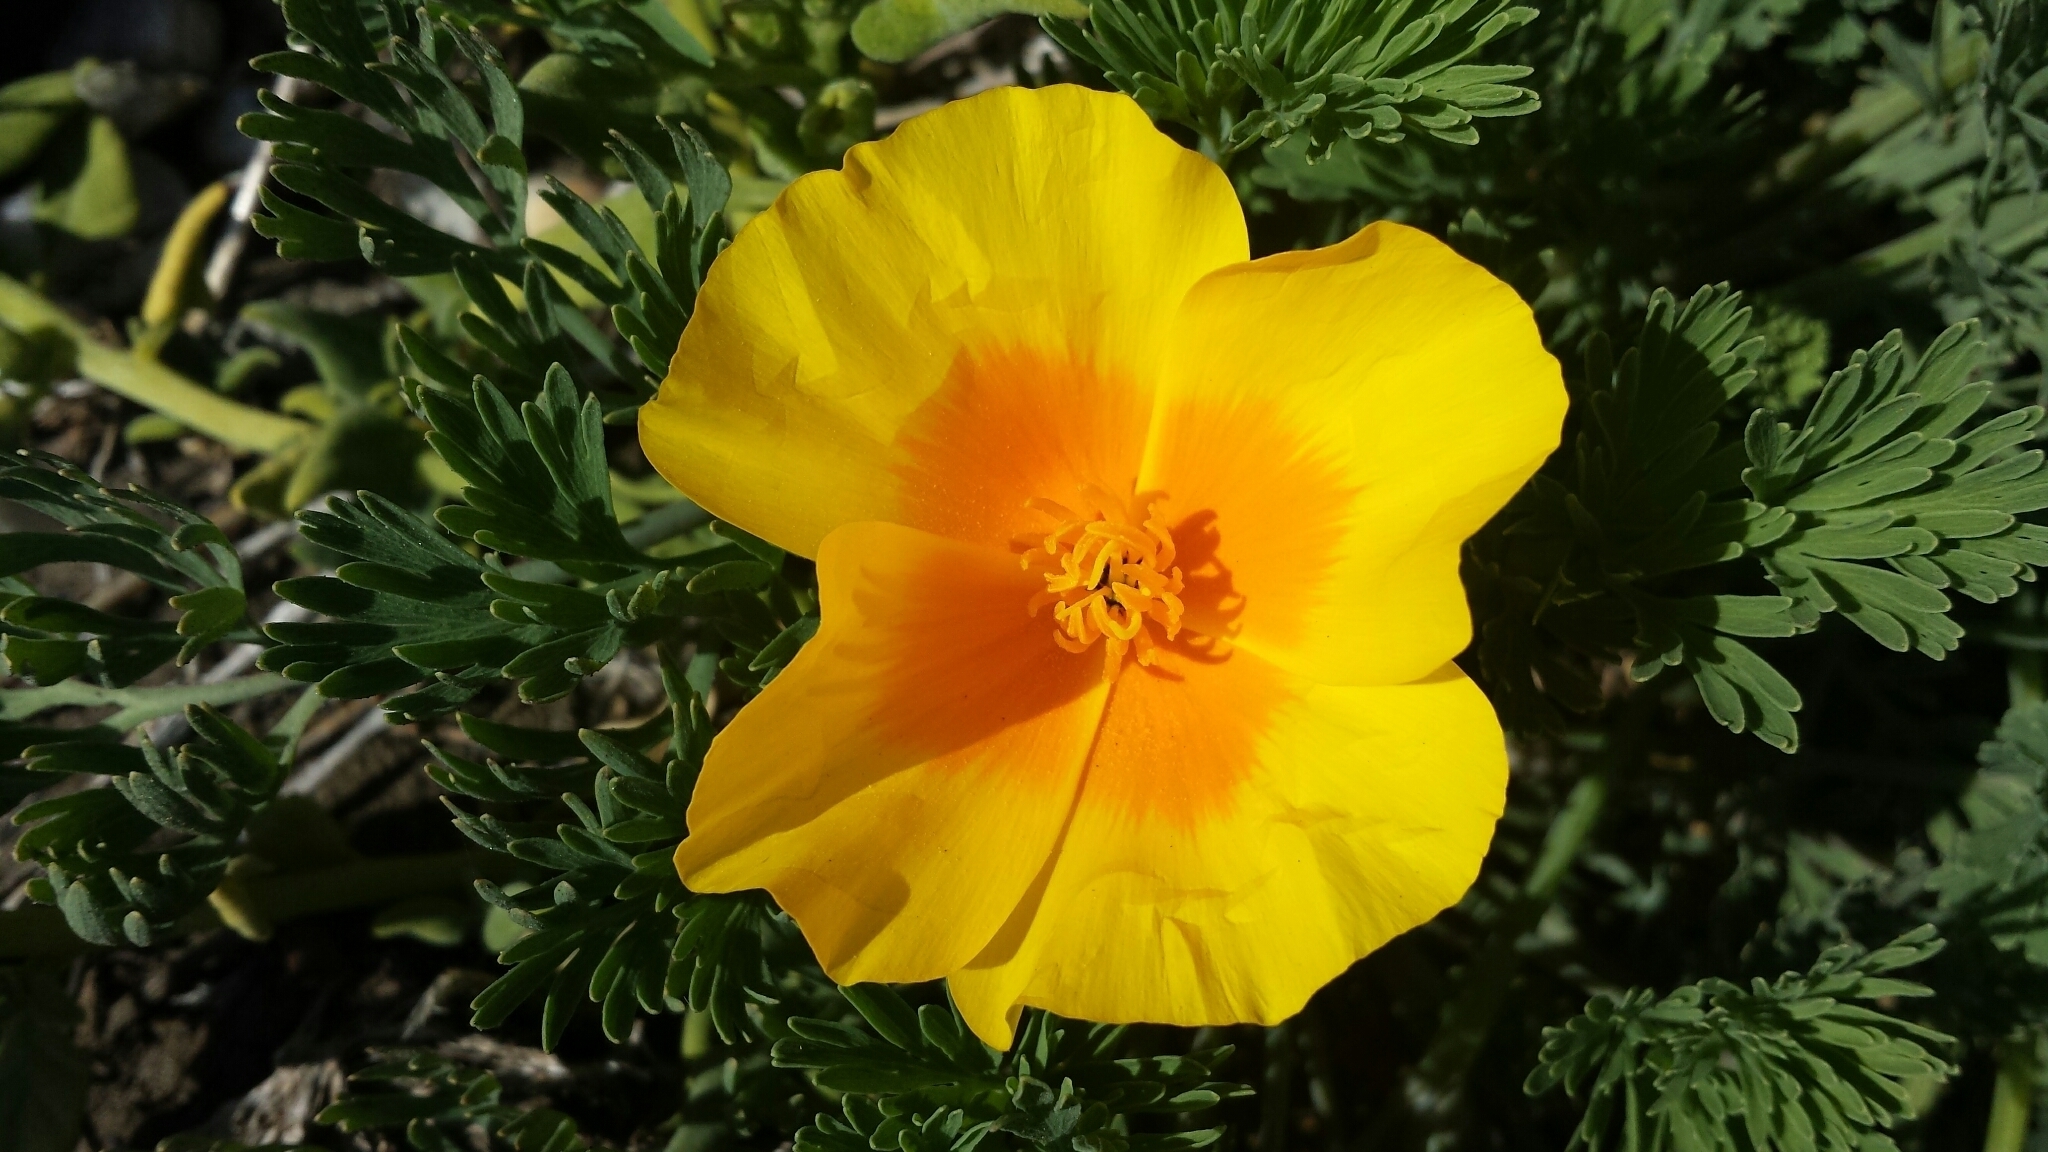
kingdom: Plantae
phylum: Tracheophyta
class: Magnoliopsida
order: Ranunculales
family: Papaveraceae
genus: Eschscholzia
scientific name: Eschscholzia californica
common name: California poppy
